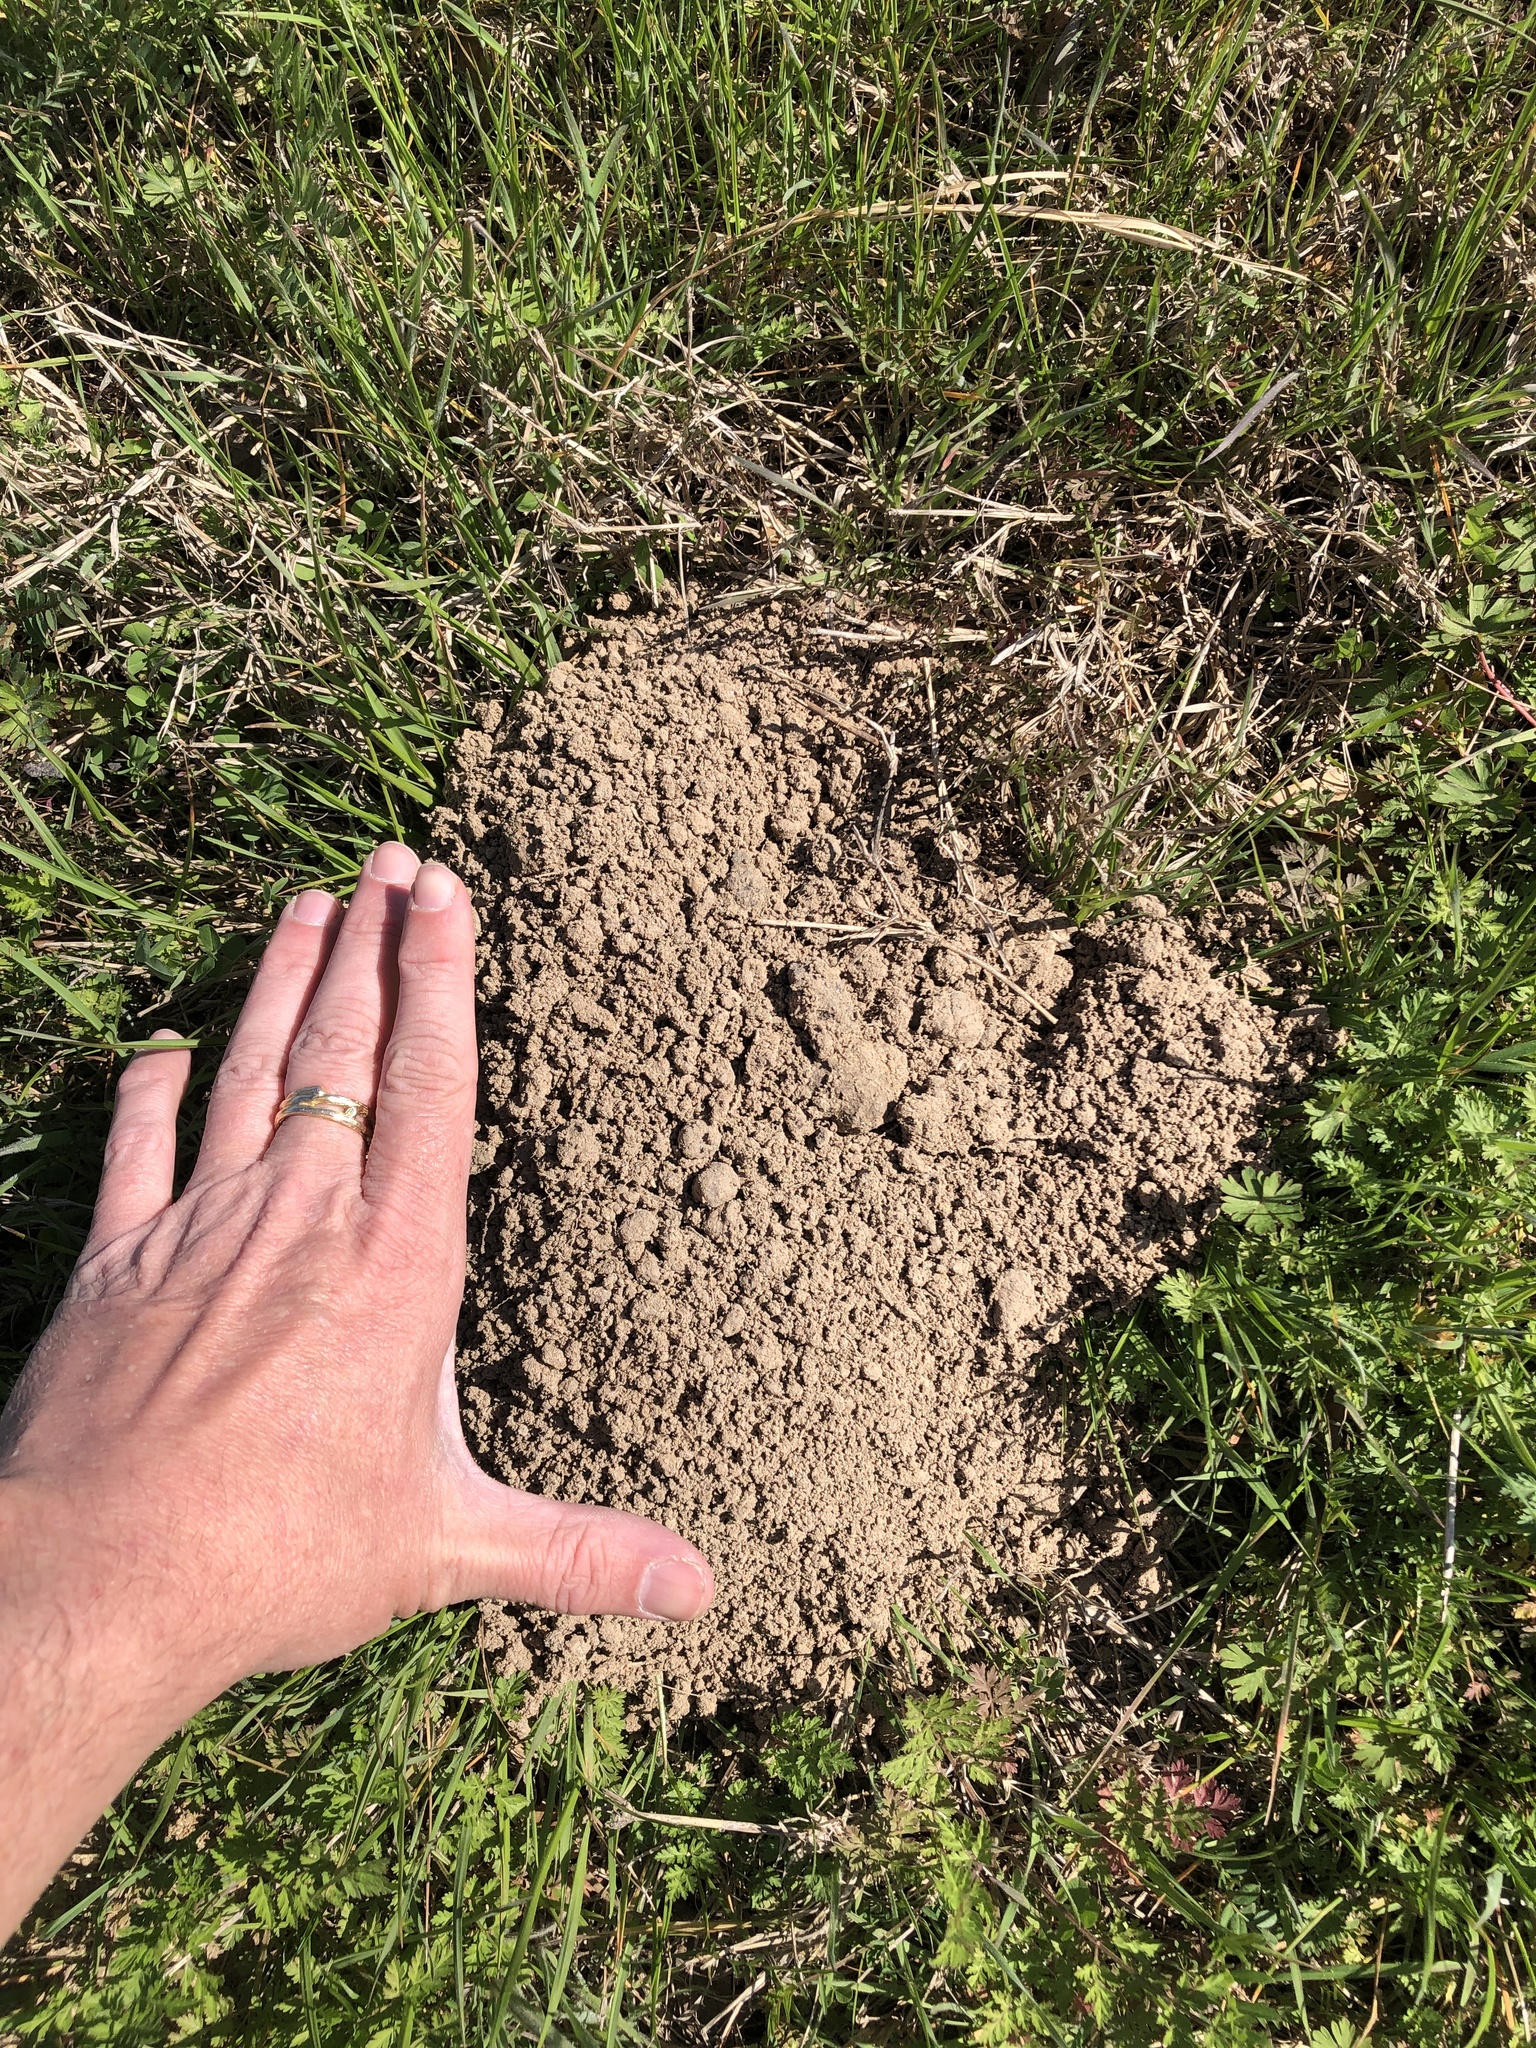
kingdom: Animalia
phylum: Chordata
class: Mammalia
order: Rodentia
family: Geomyidae
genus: Geomys
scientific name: Geomys breviceps
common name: Baird's pocket gopher
